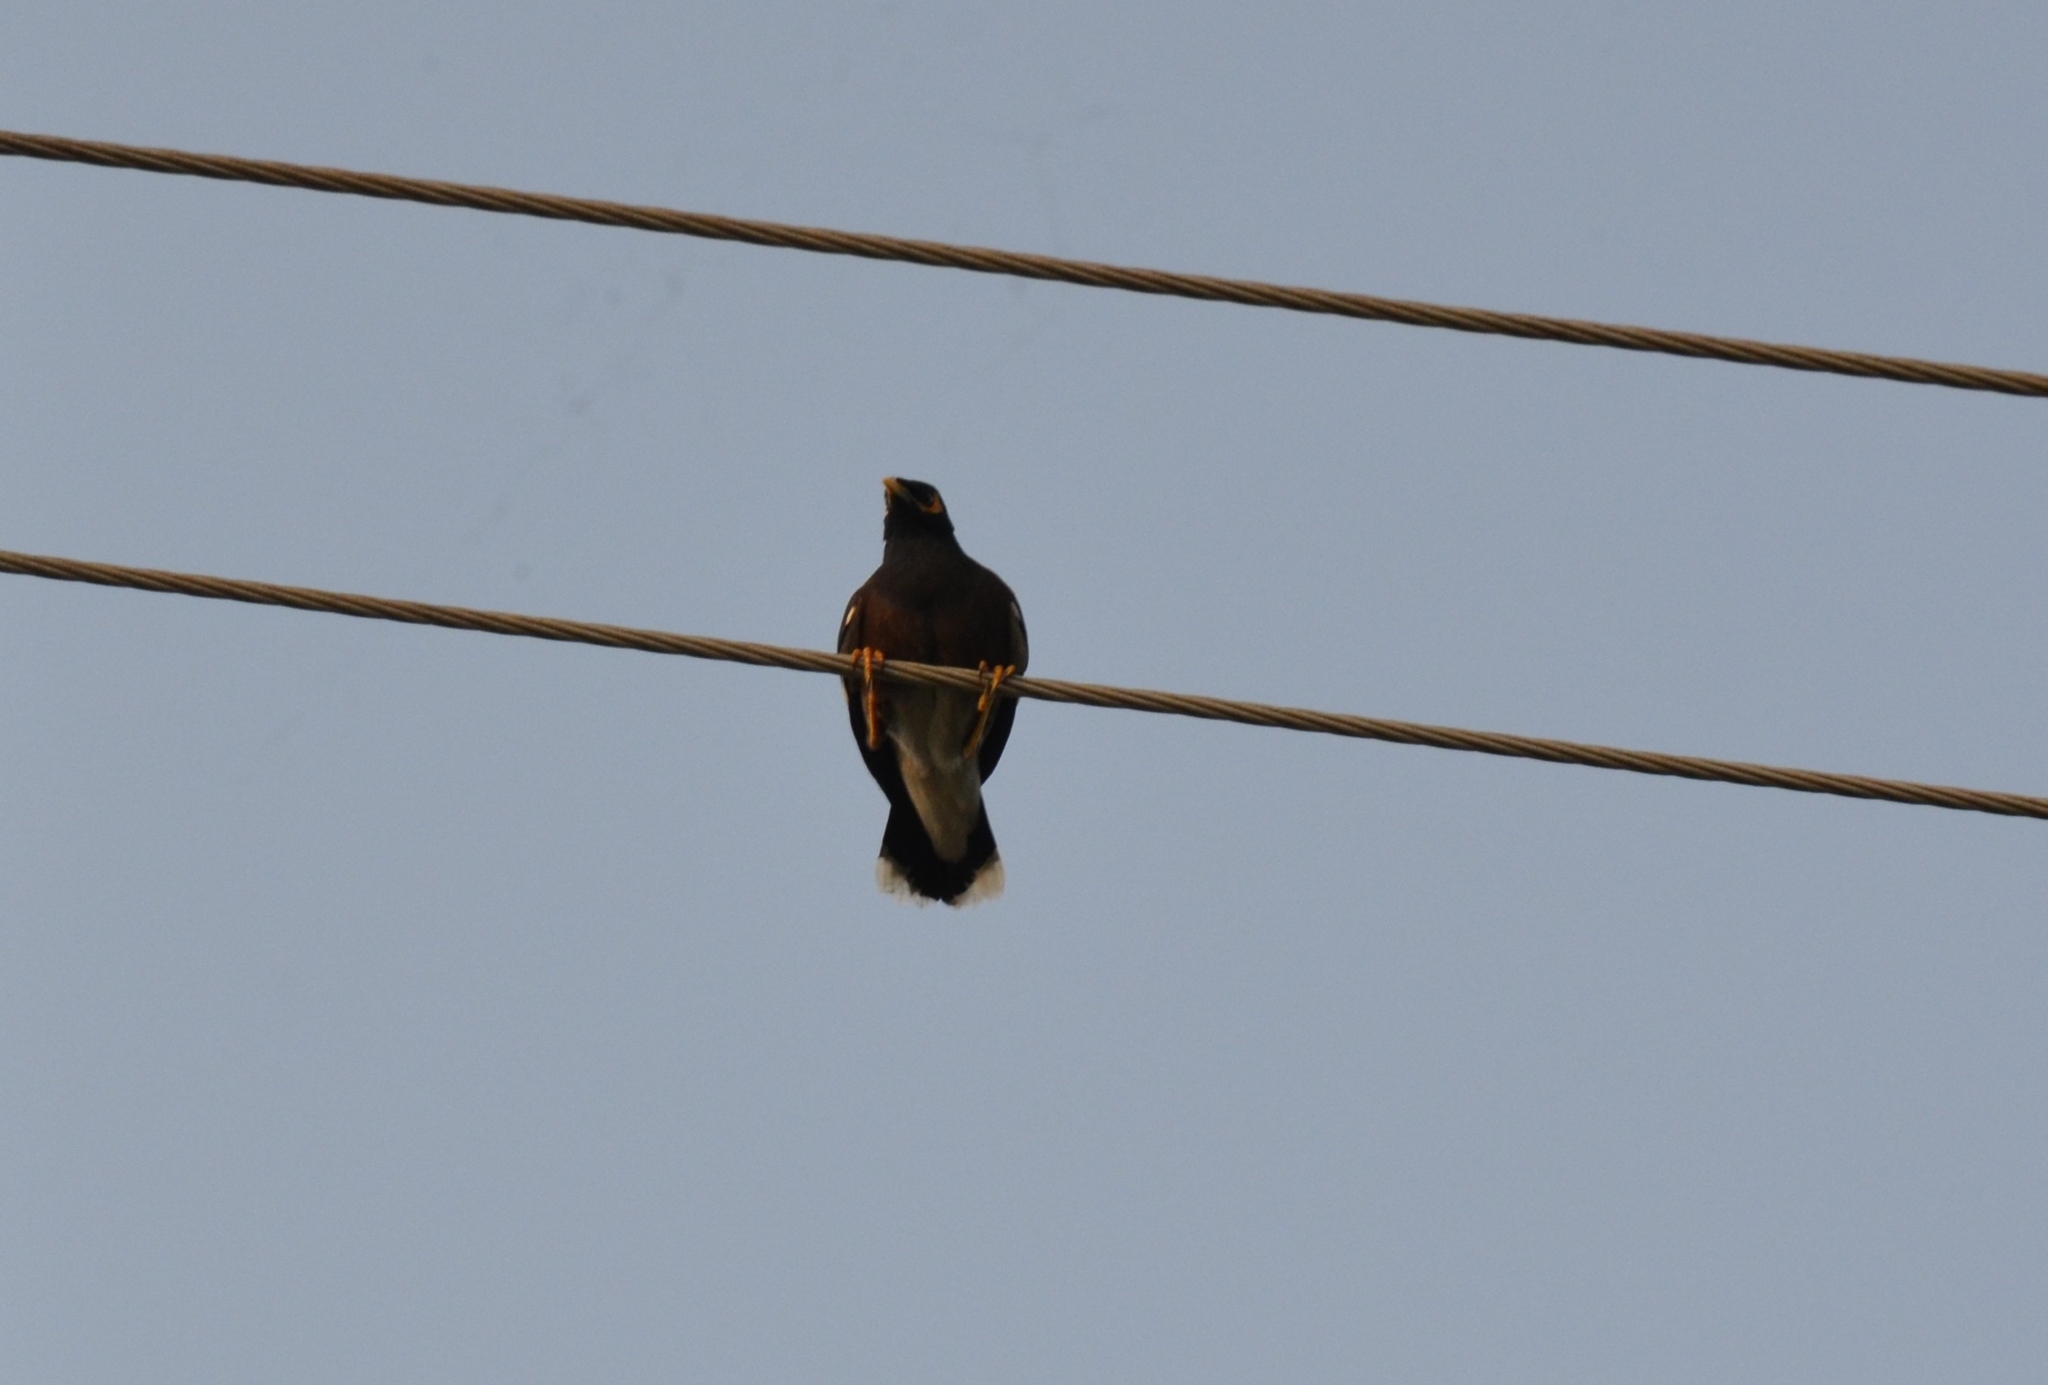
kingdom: Animalia
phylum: Chordata
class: Aves
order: Passeriformes
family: Sturnidae
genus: Acridotheres
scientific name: Acridotheres tristis
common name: Common myna
